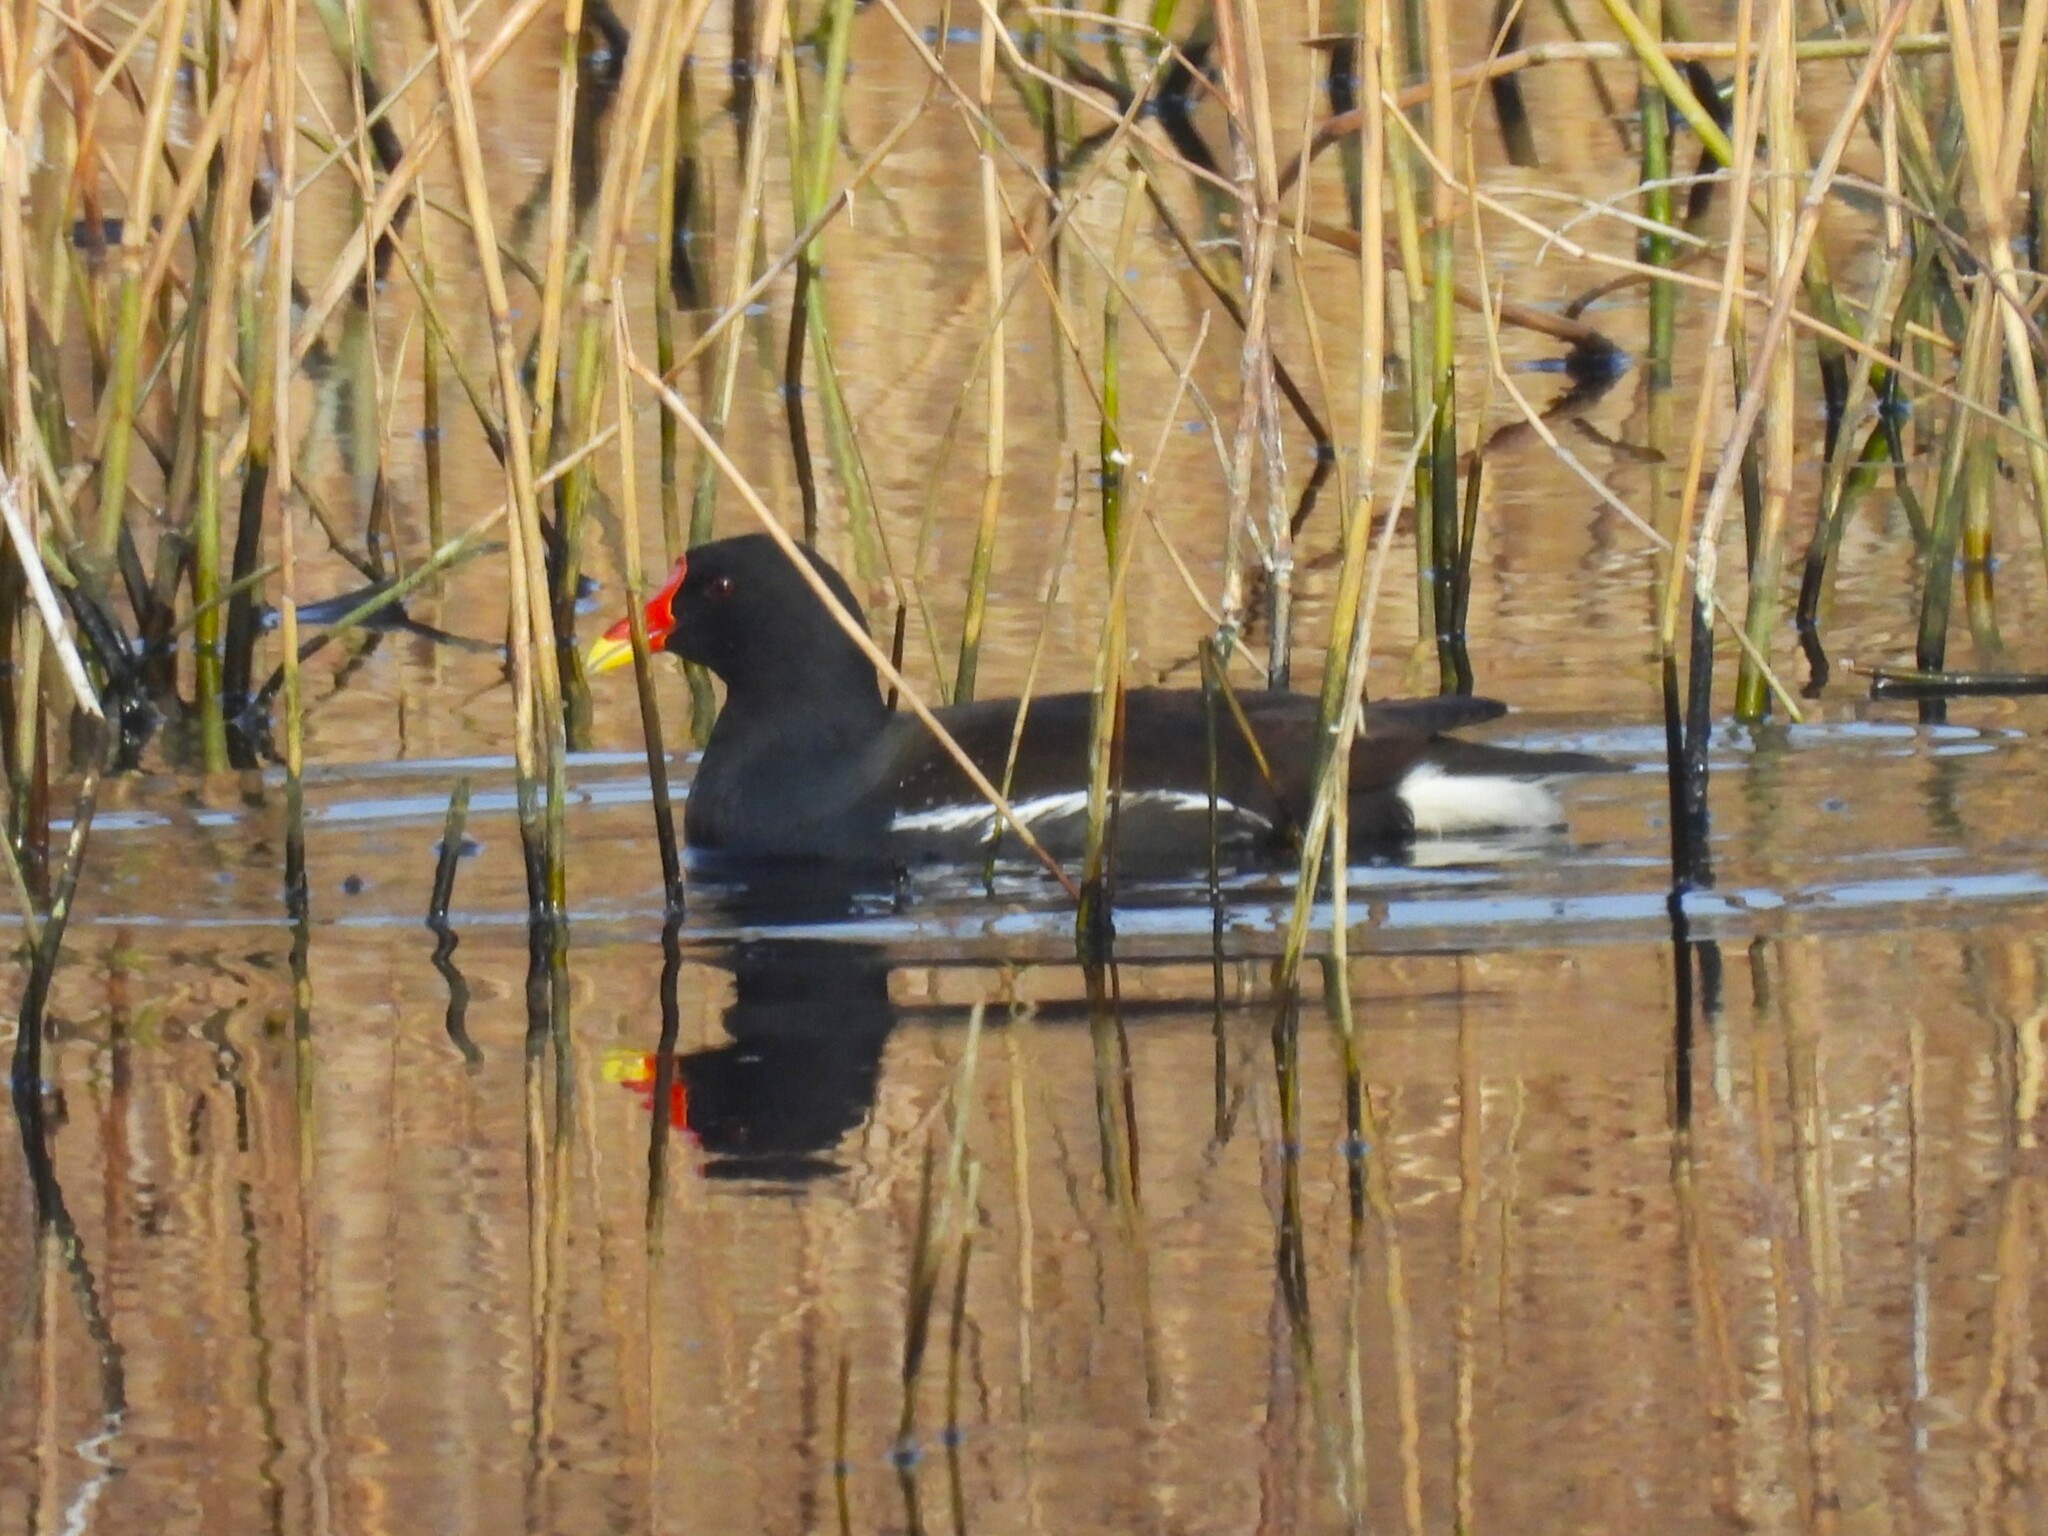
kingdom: Animalia
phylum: Chordata
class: Aves
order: Gruiformes
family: Rallidae
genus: Gallinula
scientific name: Gallinula chloropus
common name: Common moorhen
